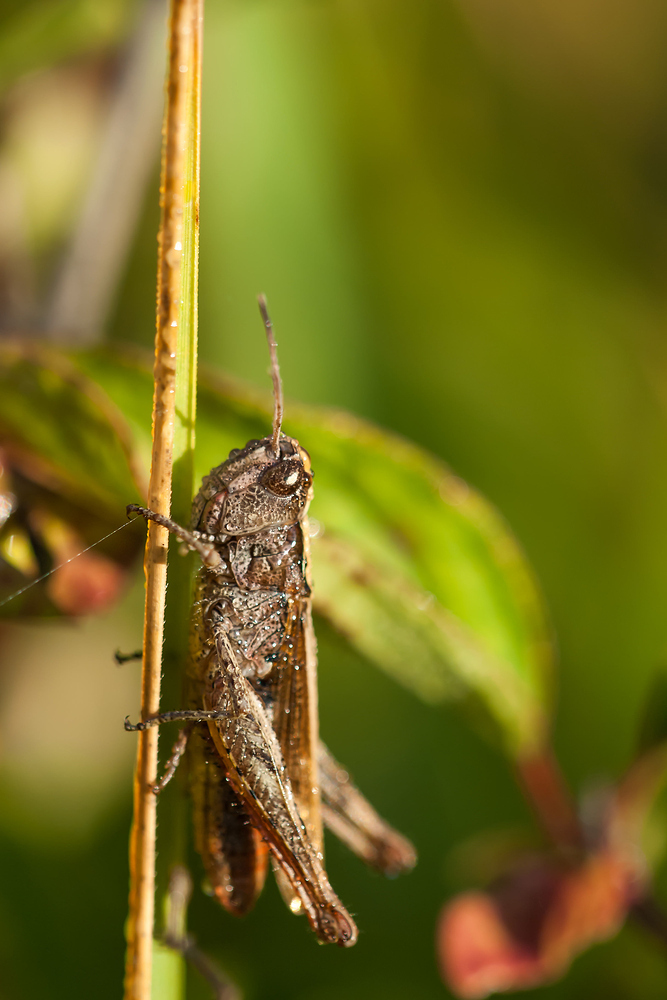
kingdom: Animalia
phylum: Arthropoda
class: Insecta
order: Orthoptera
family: Acrididae
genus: Gomphocerippus
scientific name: Gomphocerippus rufus
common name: Rufous grasshopper
